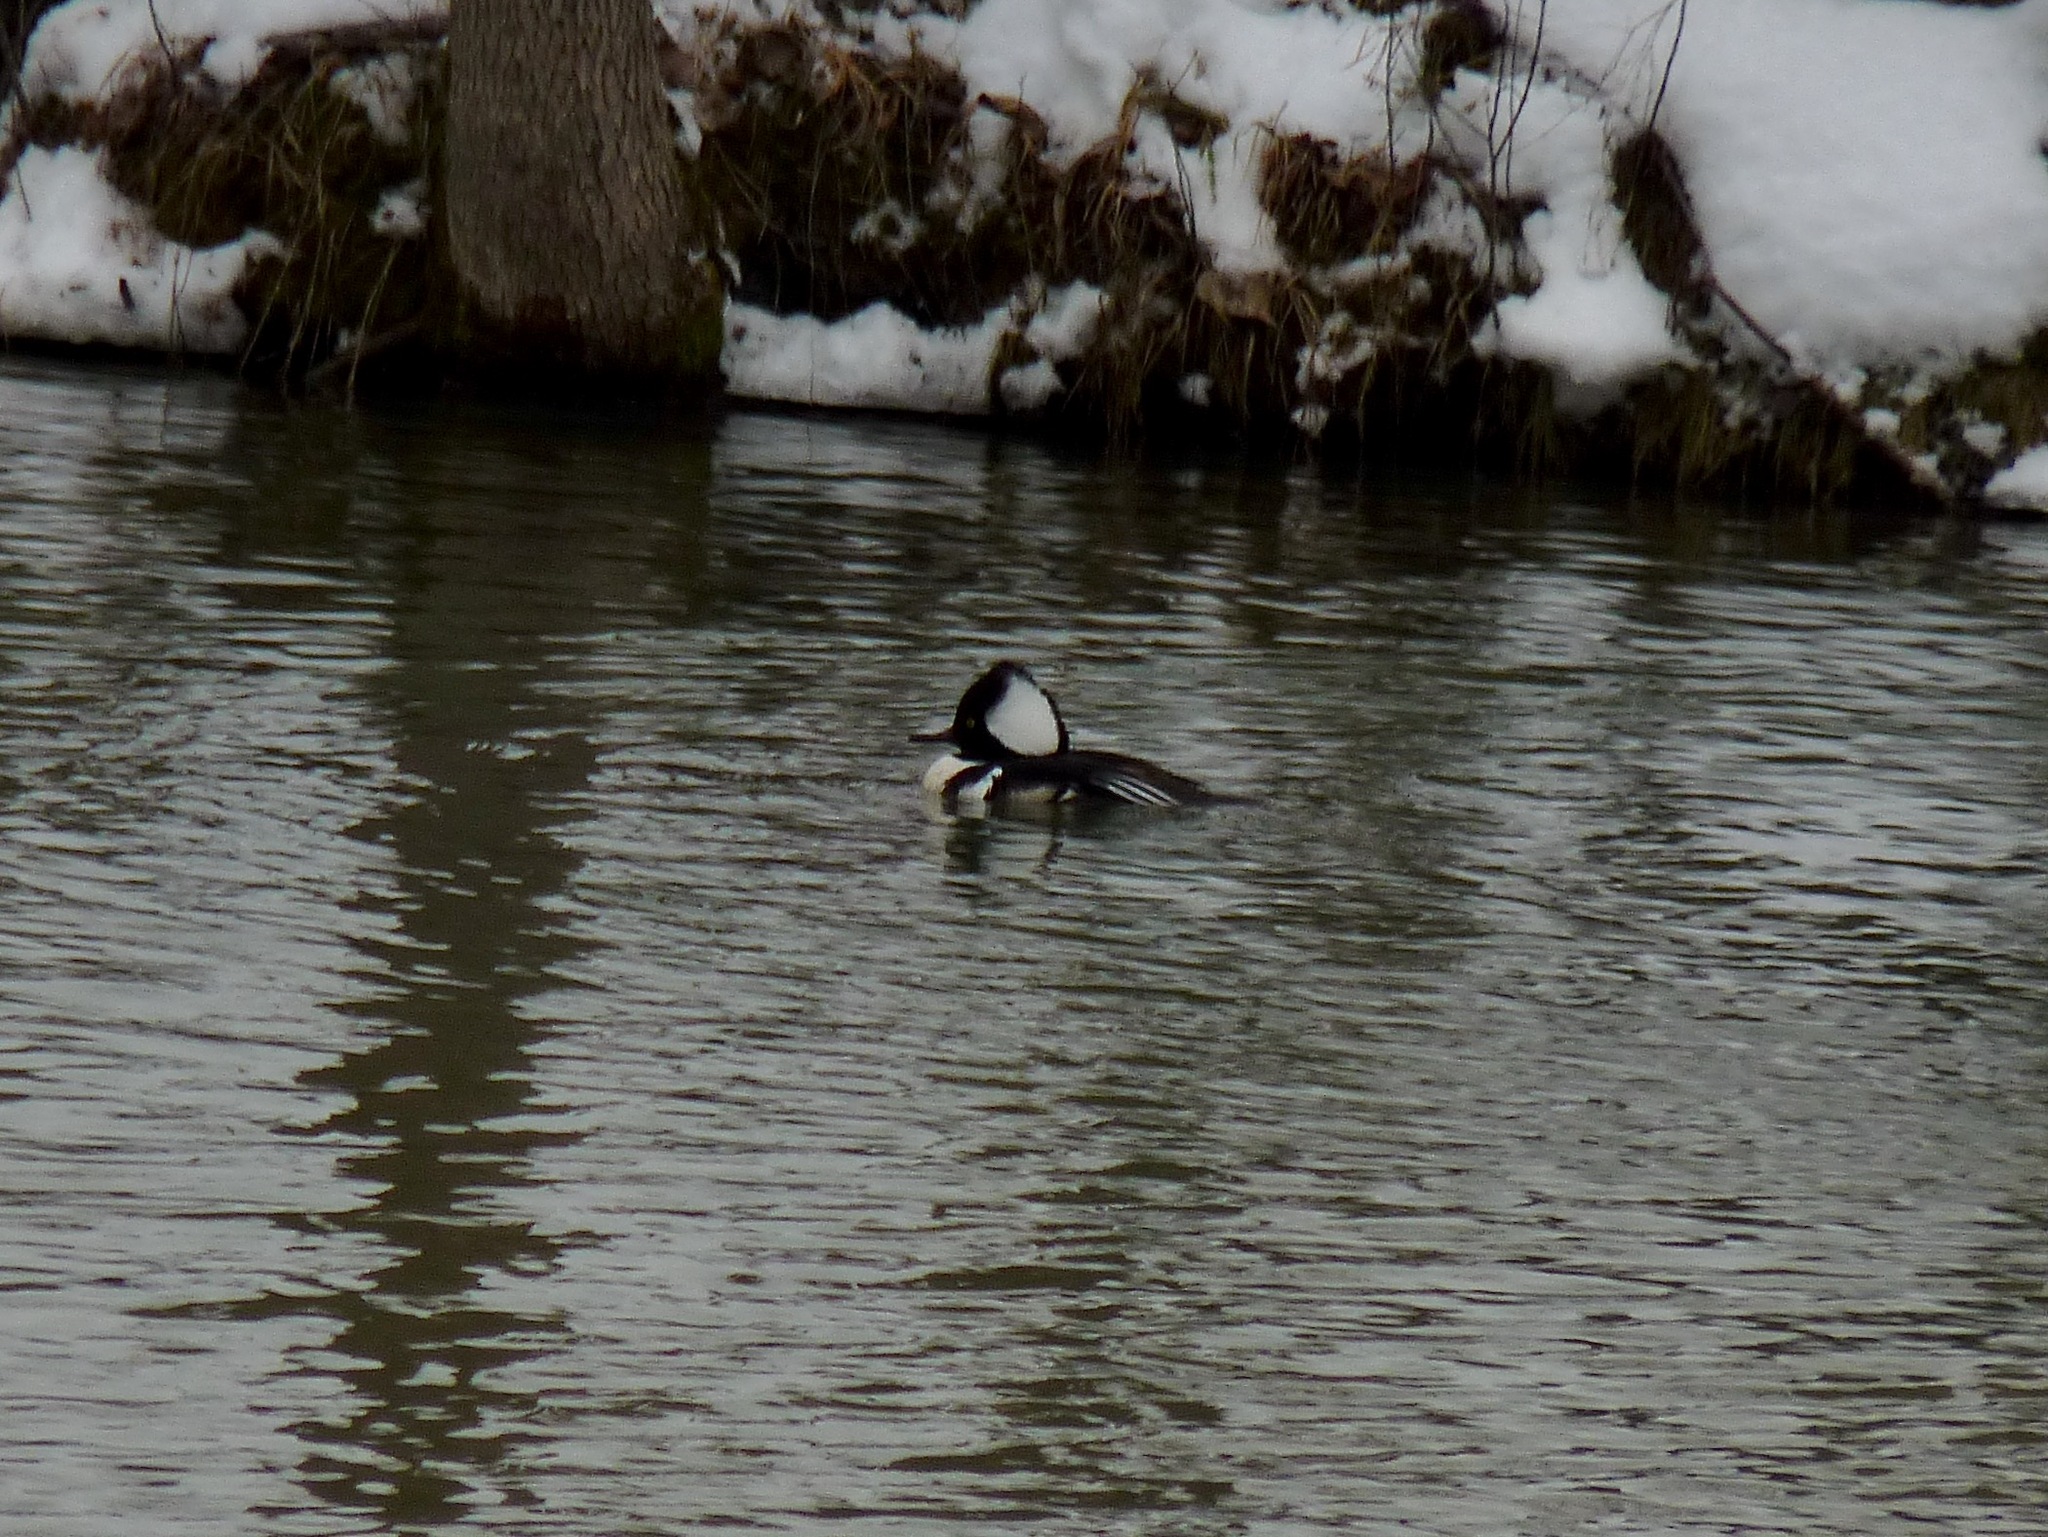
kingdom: Animalia
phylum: Chordata
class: Aves
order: Anseriformes
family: Anatidae
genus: Lophodytes
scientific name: Lophodytes cucullatus
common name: Hooded merganser
